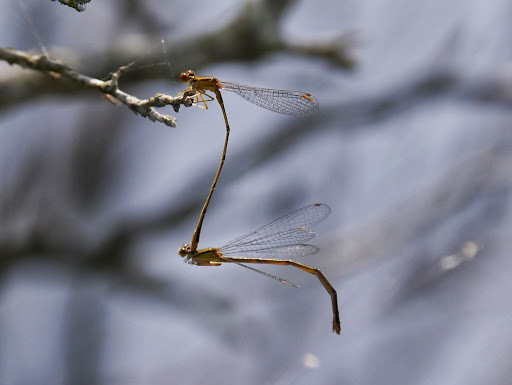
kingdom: Animalia
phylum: Arthropoda
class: Insecta
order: Odonata
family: Coenagrionidae
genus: Enallagma
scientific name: Enallagma signatum
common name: Orange bluet
